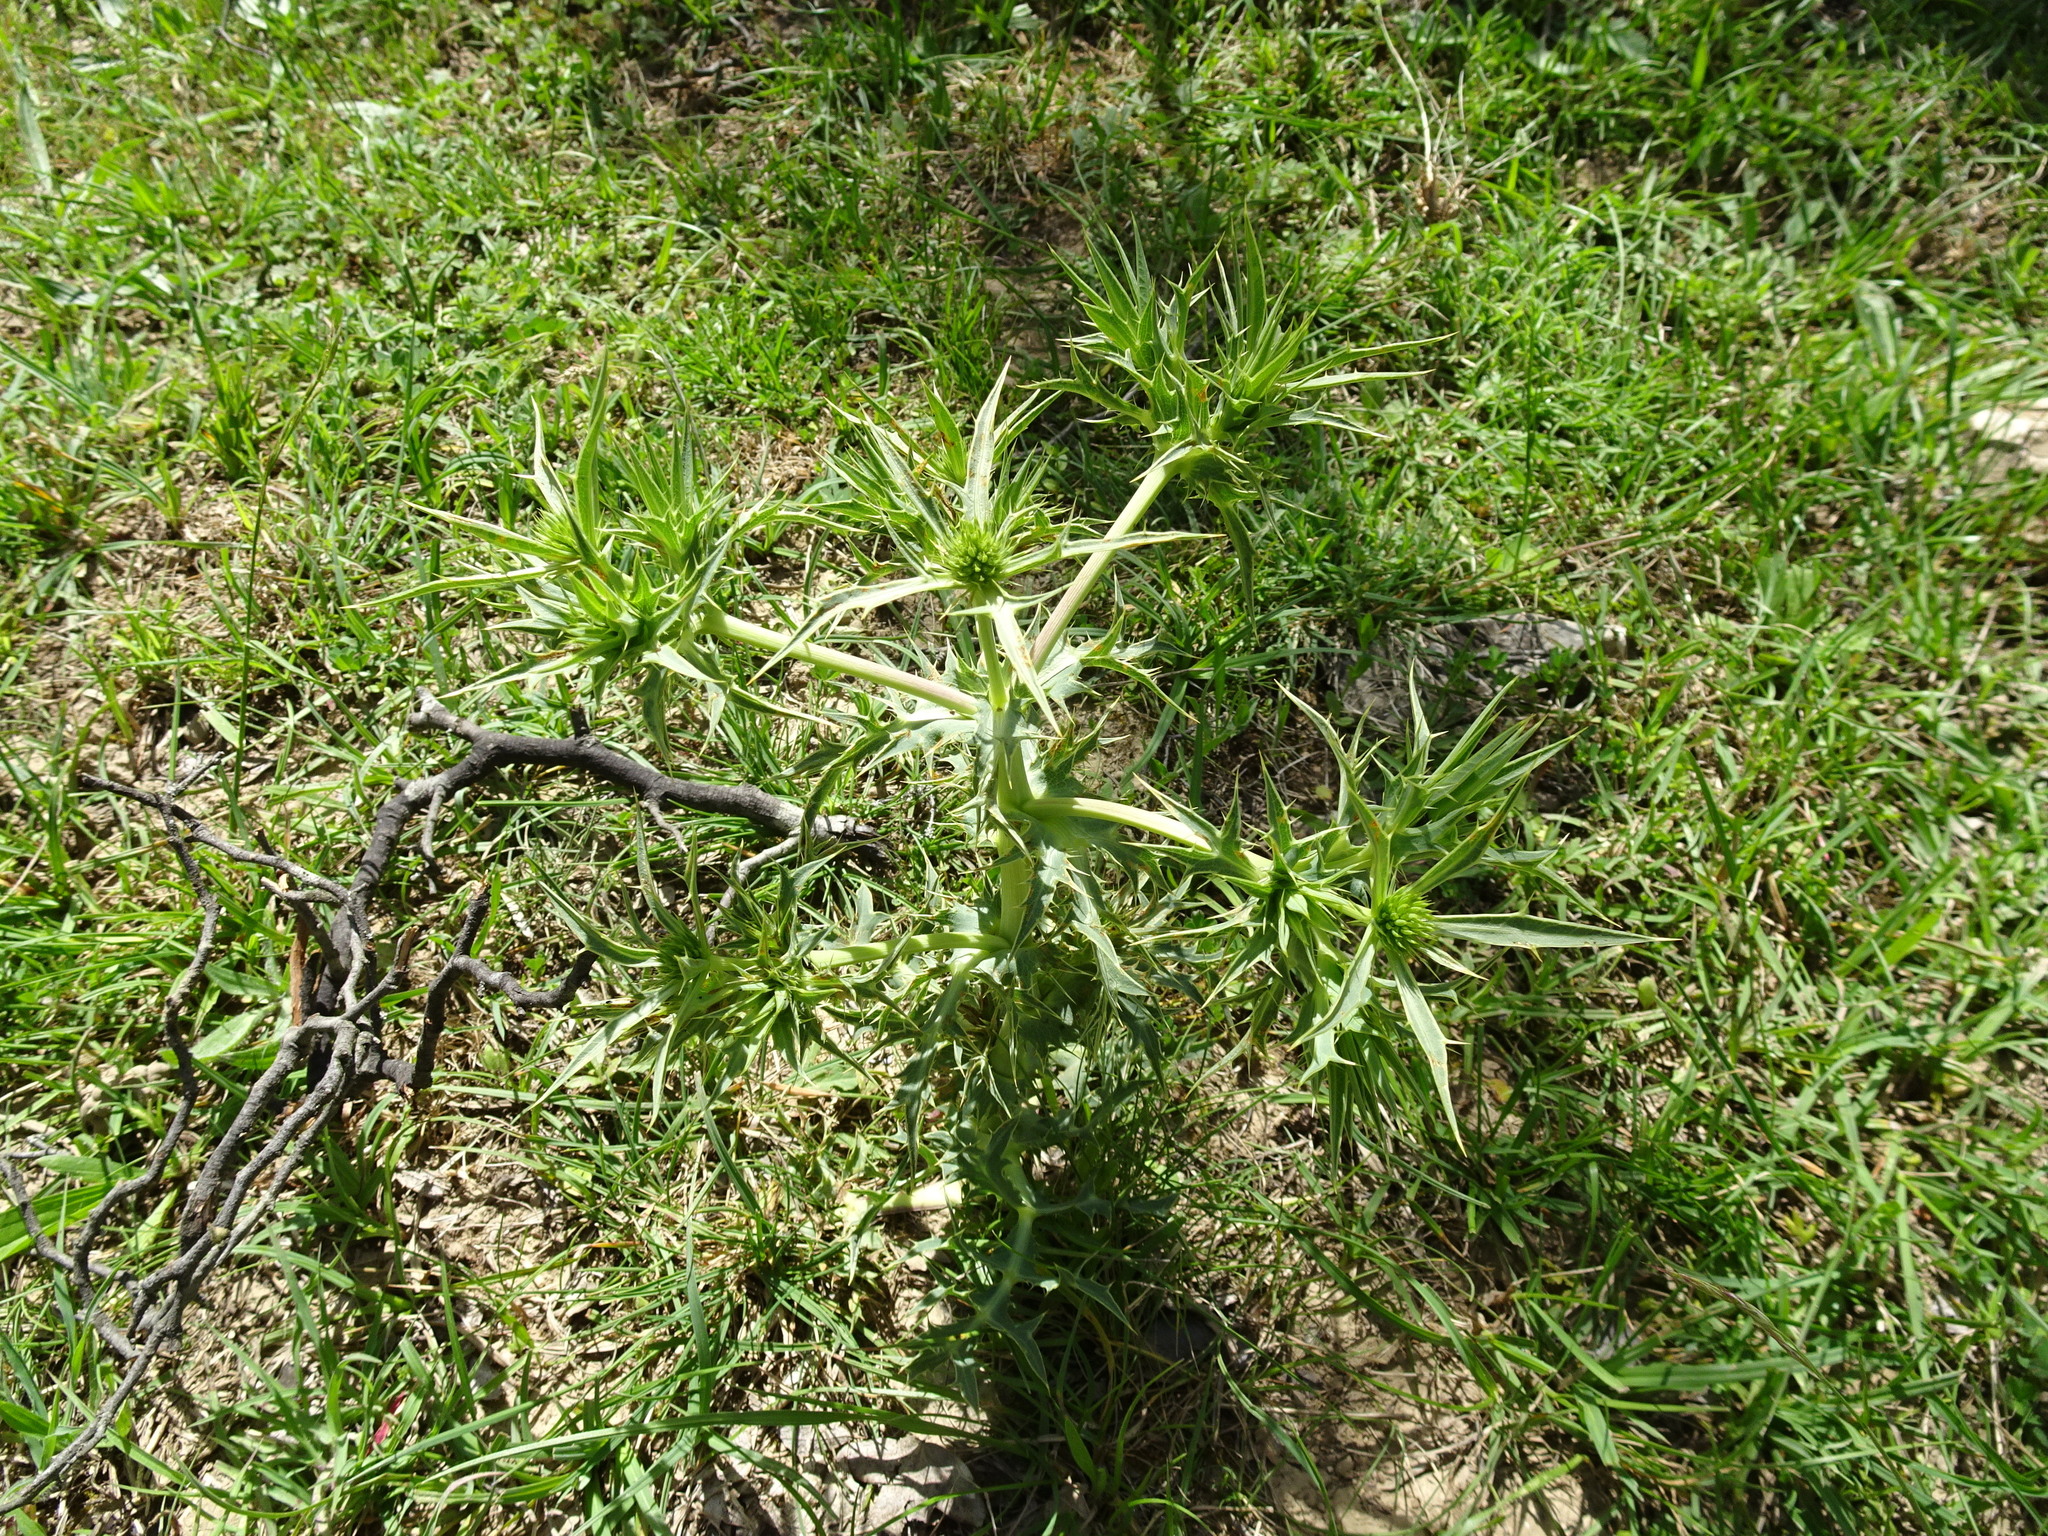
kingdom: Plantae
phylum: Tracheophyta
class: Magnoliopsida
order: Apiales
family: Apiaceae
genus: Eryngium
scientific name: Eryngium campestre
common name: Field eryngo
